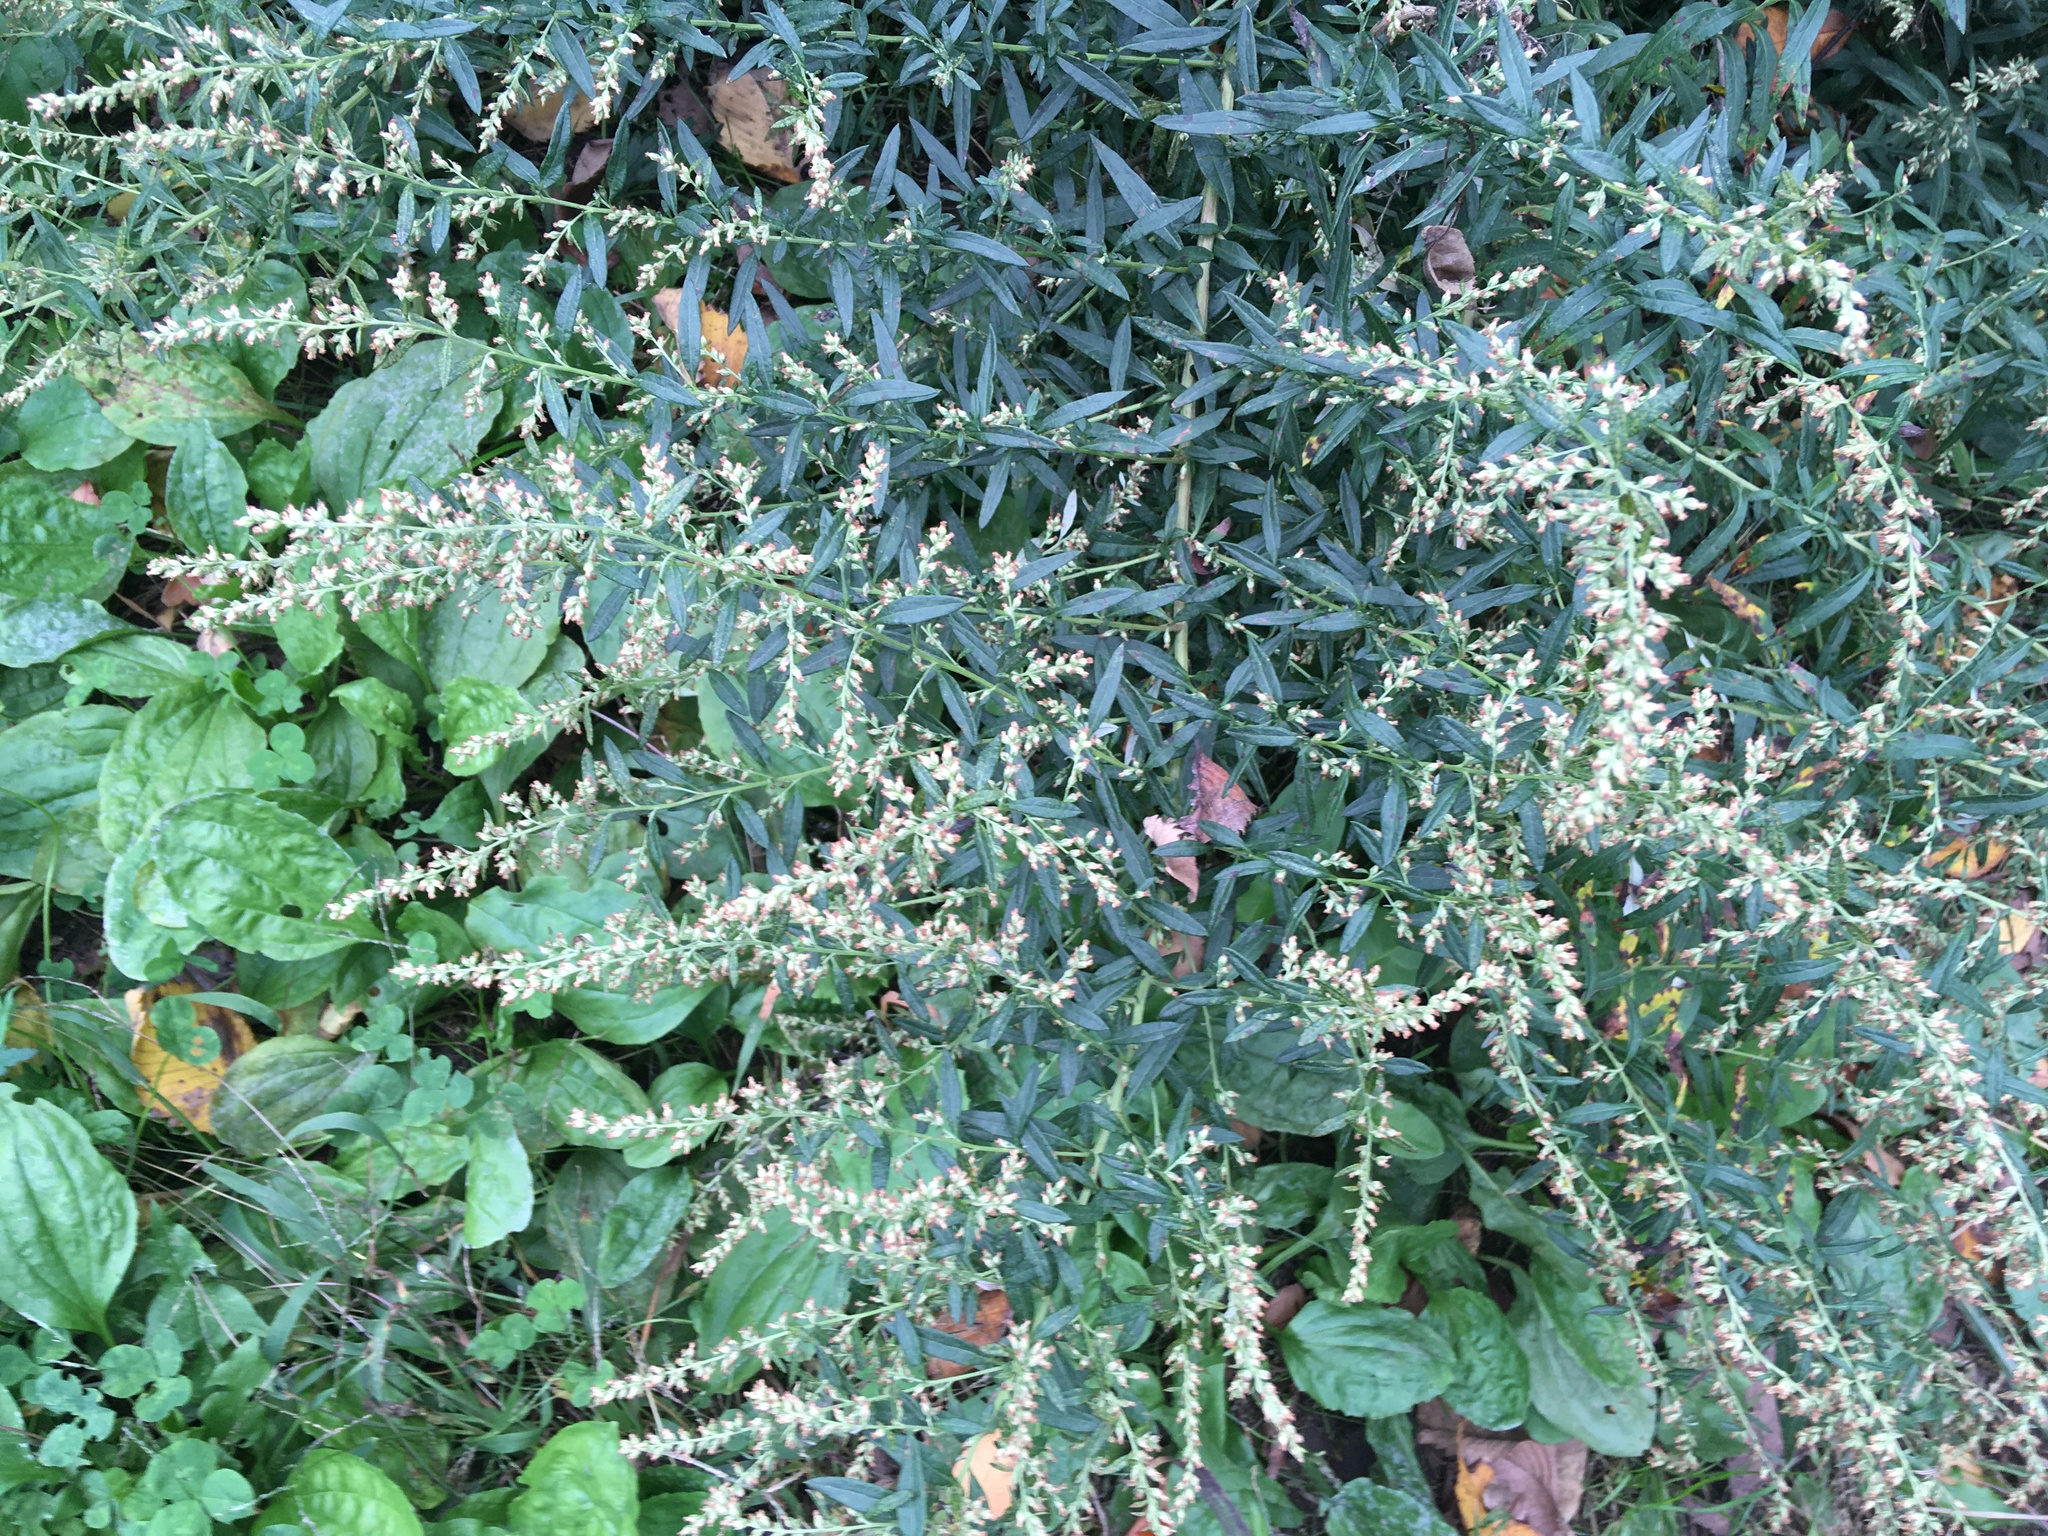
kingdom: Plantae
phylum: Tracheophyta
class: Magnoliopsida
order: Asterales
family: Asteraceae
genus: Artemisia
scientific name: Artemisia vulgaris
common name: Mugwort
